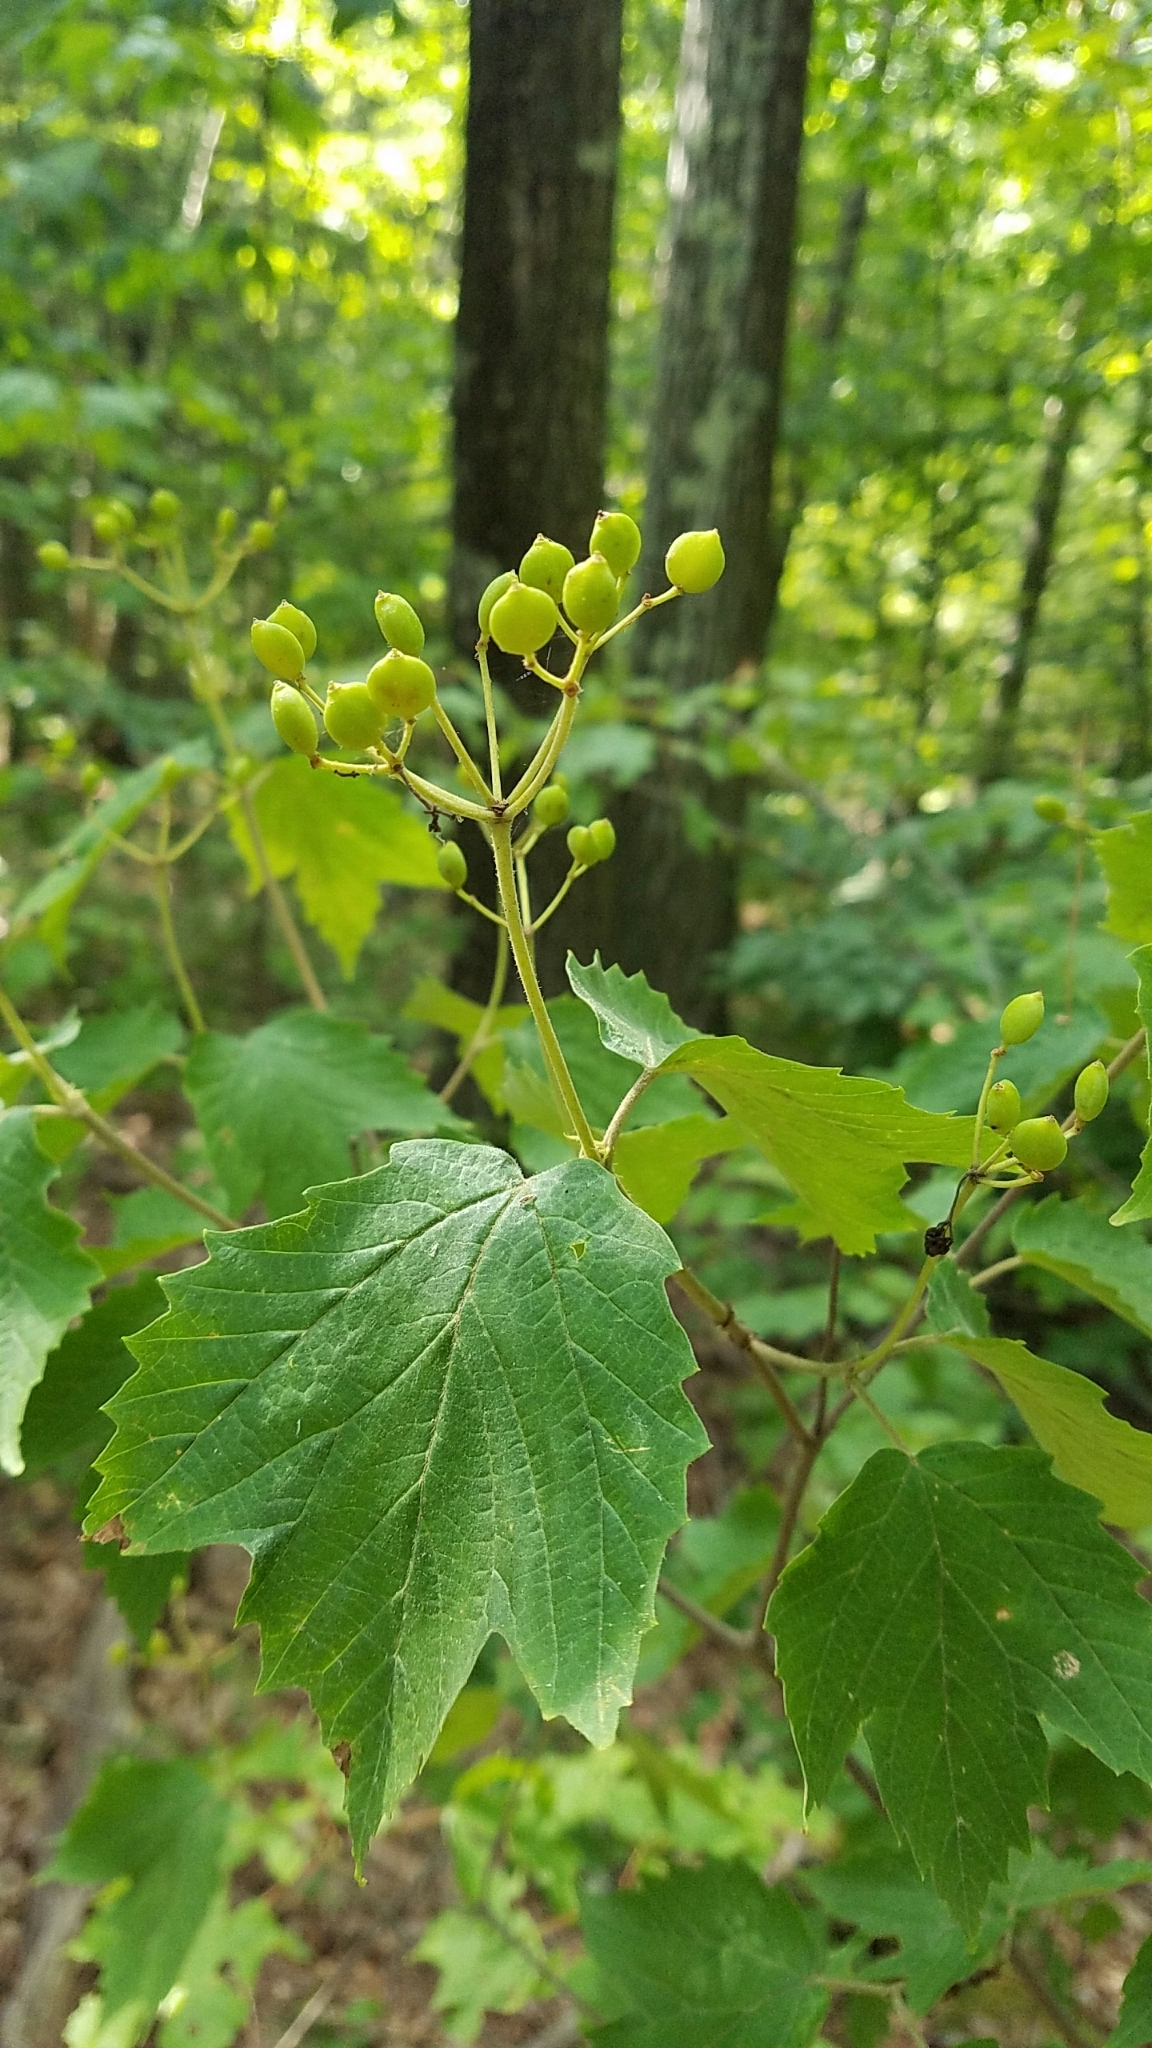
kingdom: Plantae
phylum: Tracheophyta
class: Magnoliopsida
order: Dipsacales
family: Viburnaceae
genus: Viburnum
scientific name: Viburnum acerifolium
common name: Dockmackie
